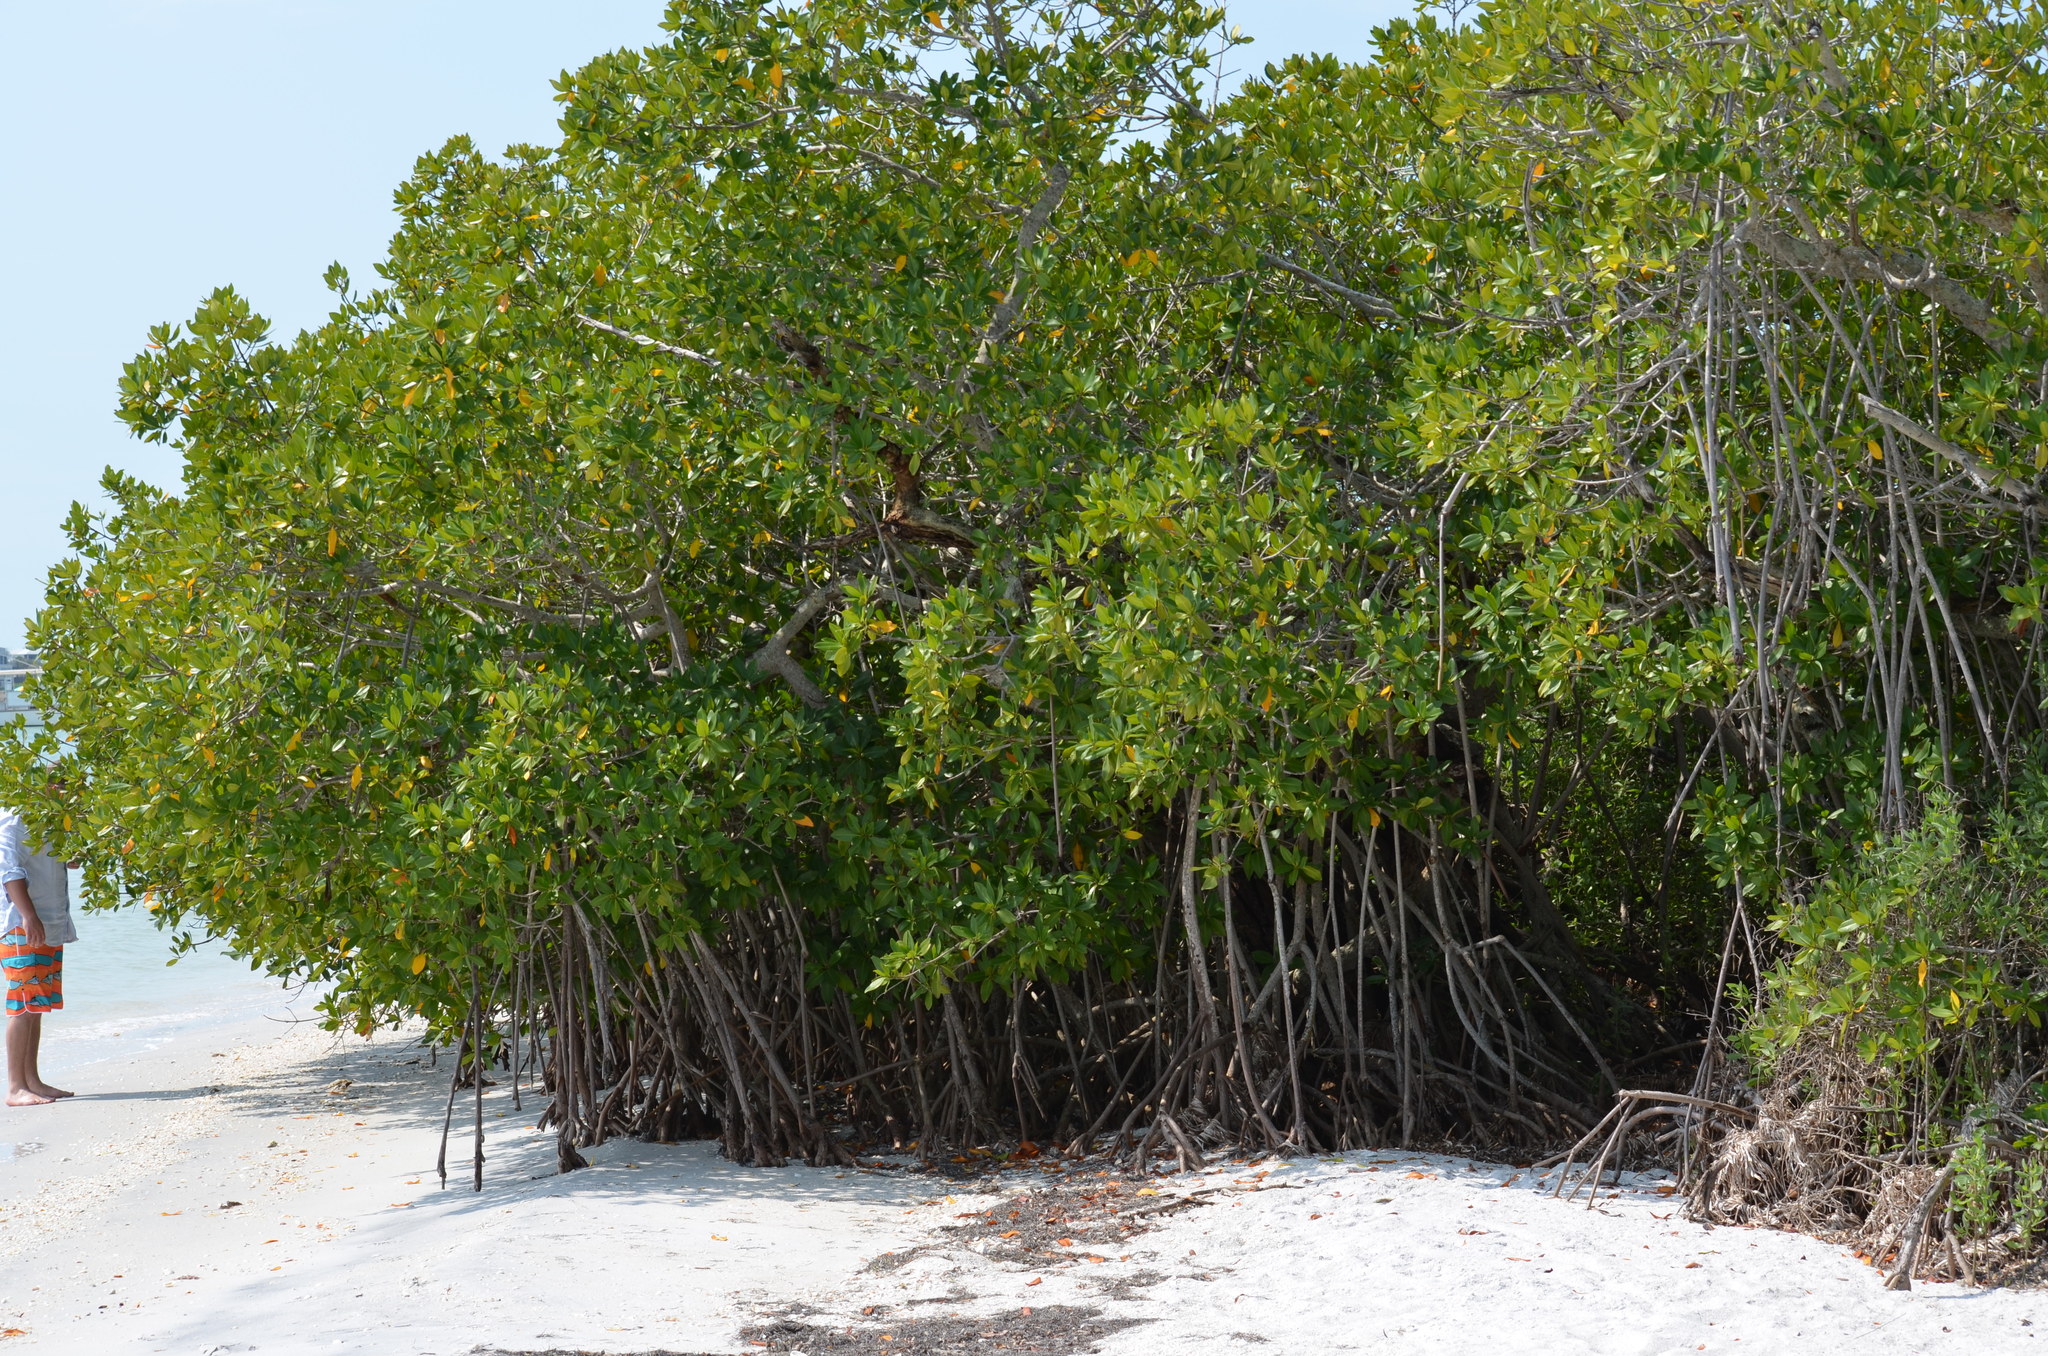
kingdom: Plantae
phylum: Tracheophyta
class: Magnoliopsida
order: Malpighiales
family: Rhizophoraceae
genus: Rhizophora
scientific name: Rhizophora mangle
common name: Red mangrove
